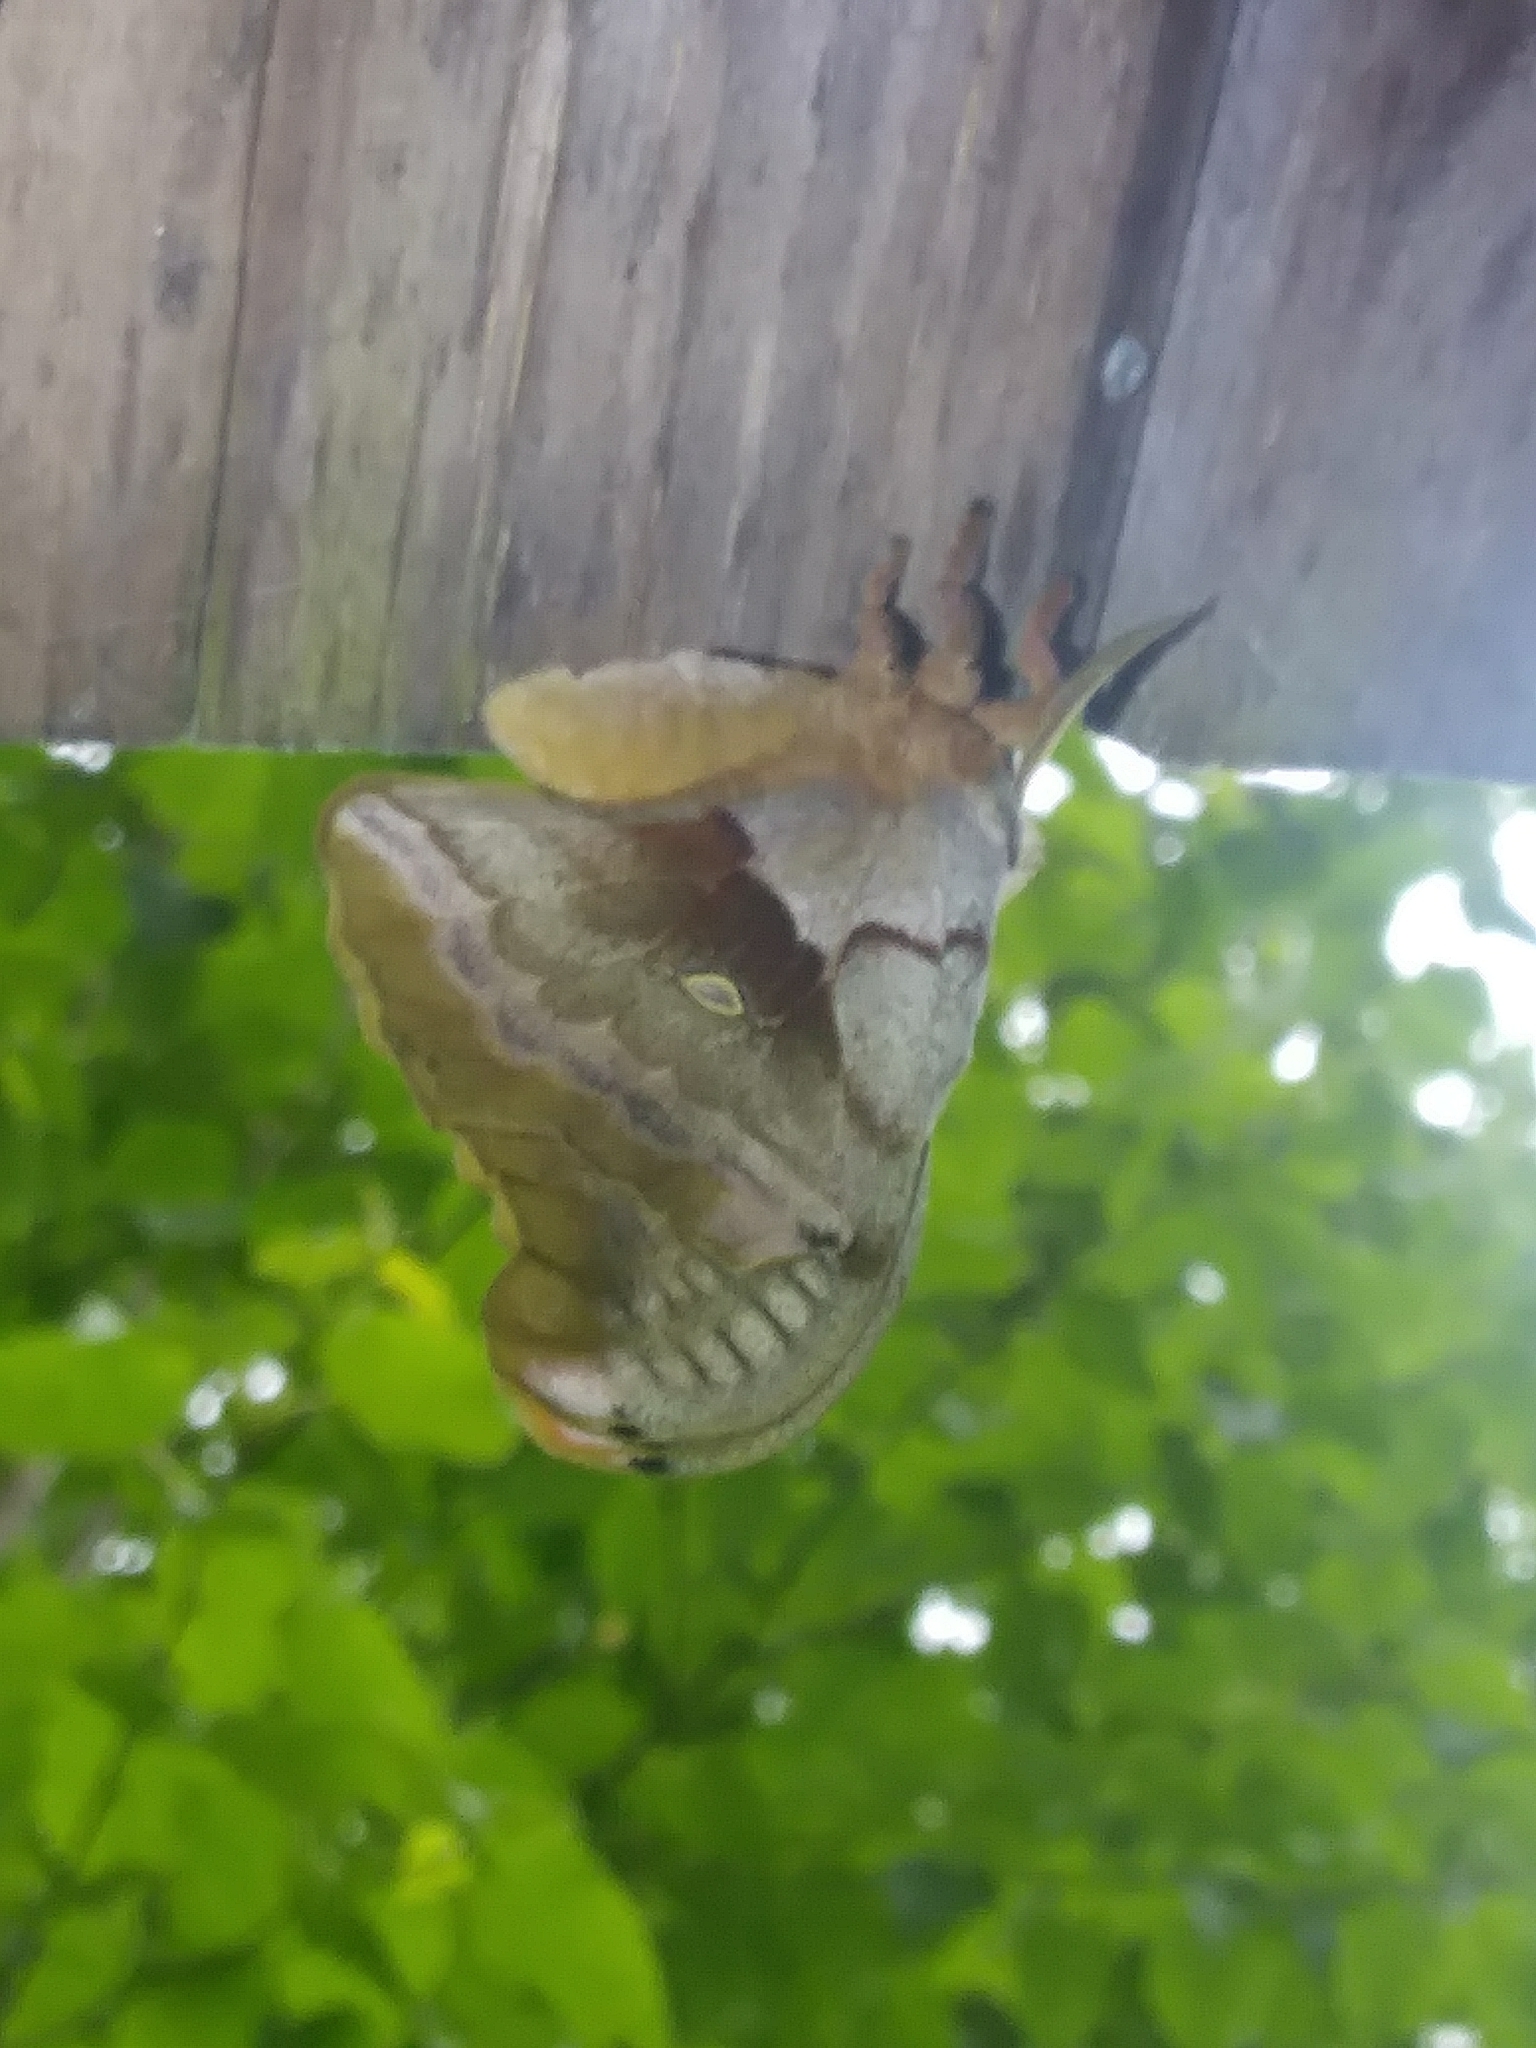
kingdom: Animalia
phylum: Arthropoda
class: Insecta
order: Lepidoptera
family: Saturniidae
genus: Antheraea
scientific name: Antheraea polyphemus
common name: Polyphemus moth
